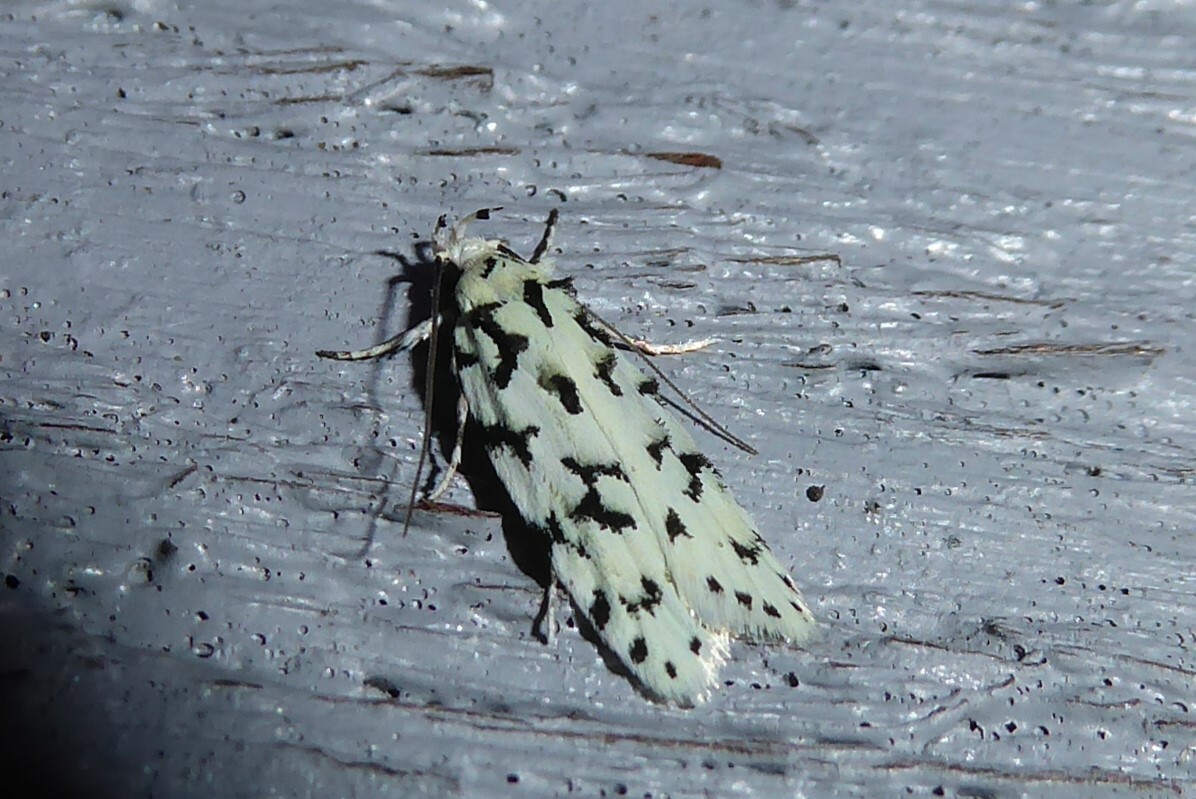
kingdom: Animalia
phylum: Arthropoda
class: Insecta
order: Lepidoptera
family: Oecophoridae
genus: Izatha
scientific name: Izatha huttoni
